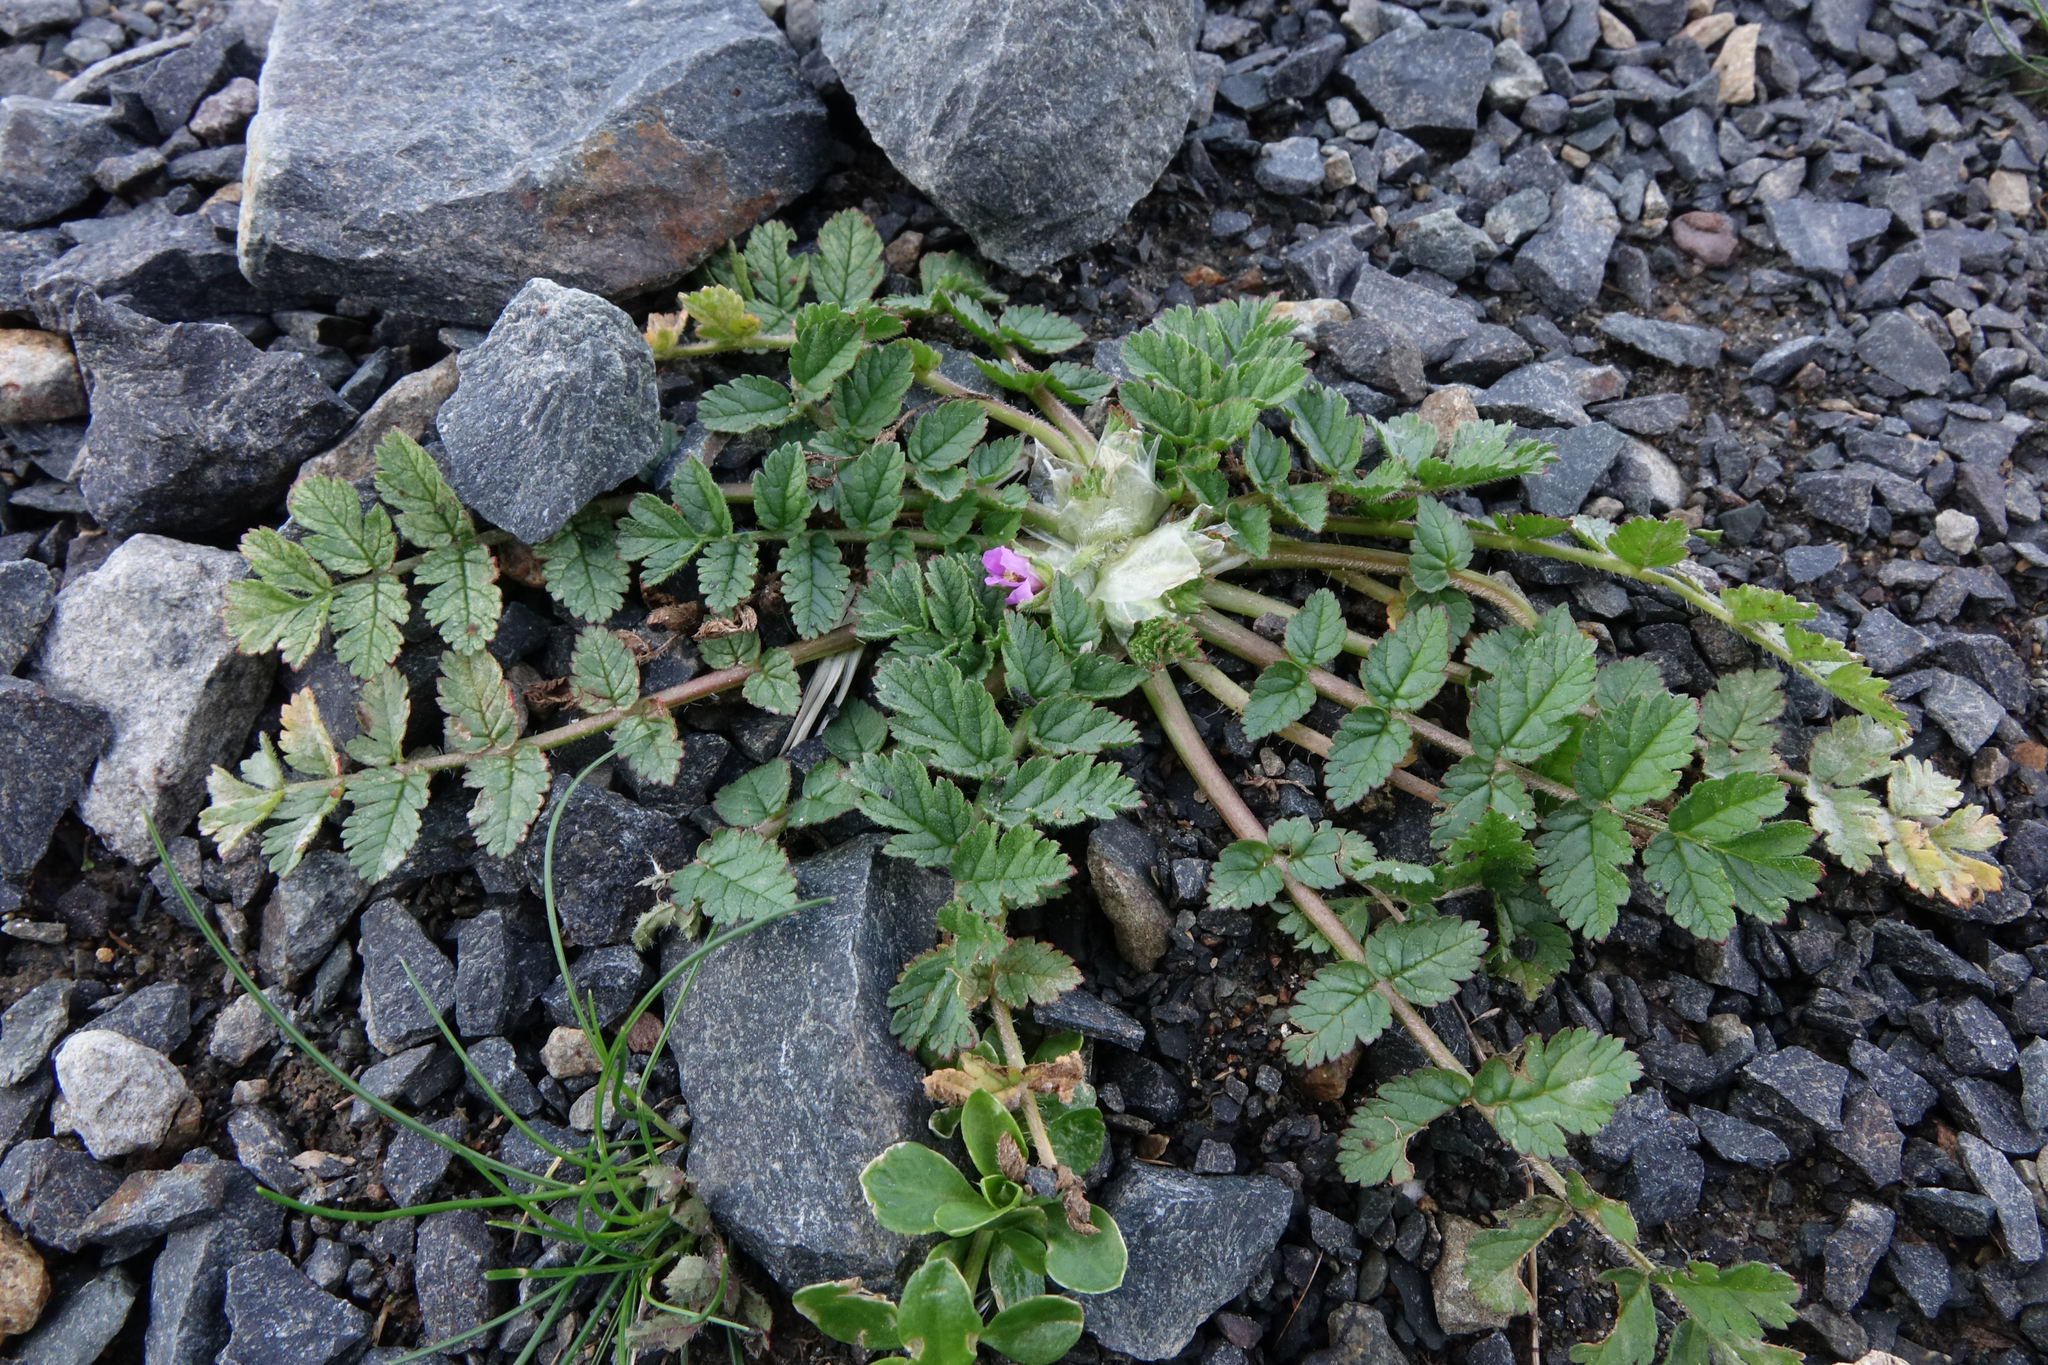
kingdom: Plantae
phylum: Tracheophyta
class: Magnoliopsida
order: Geraniales
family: Geraniaceae
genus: Erodium
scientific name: Erodium moschatum
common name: Musk stork's-bill
